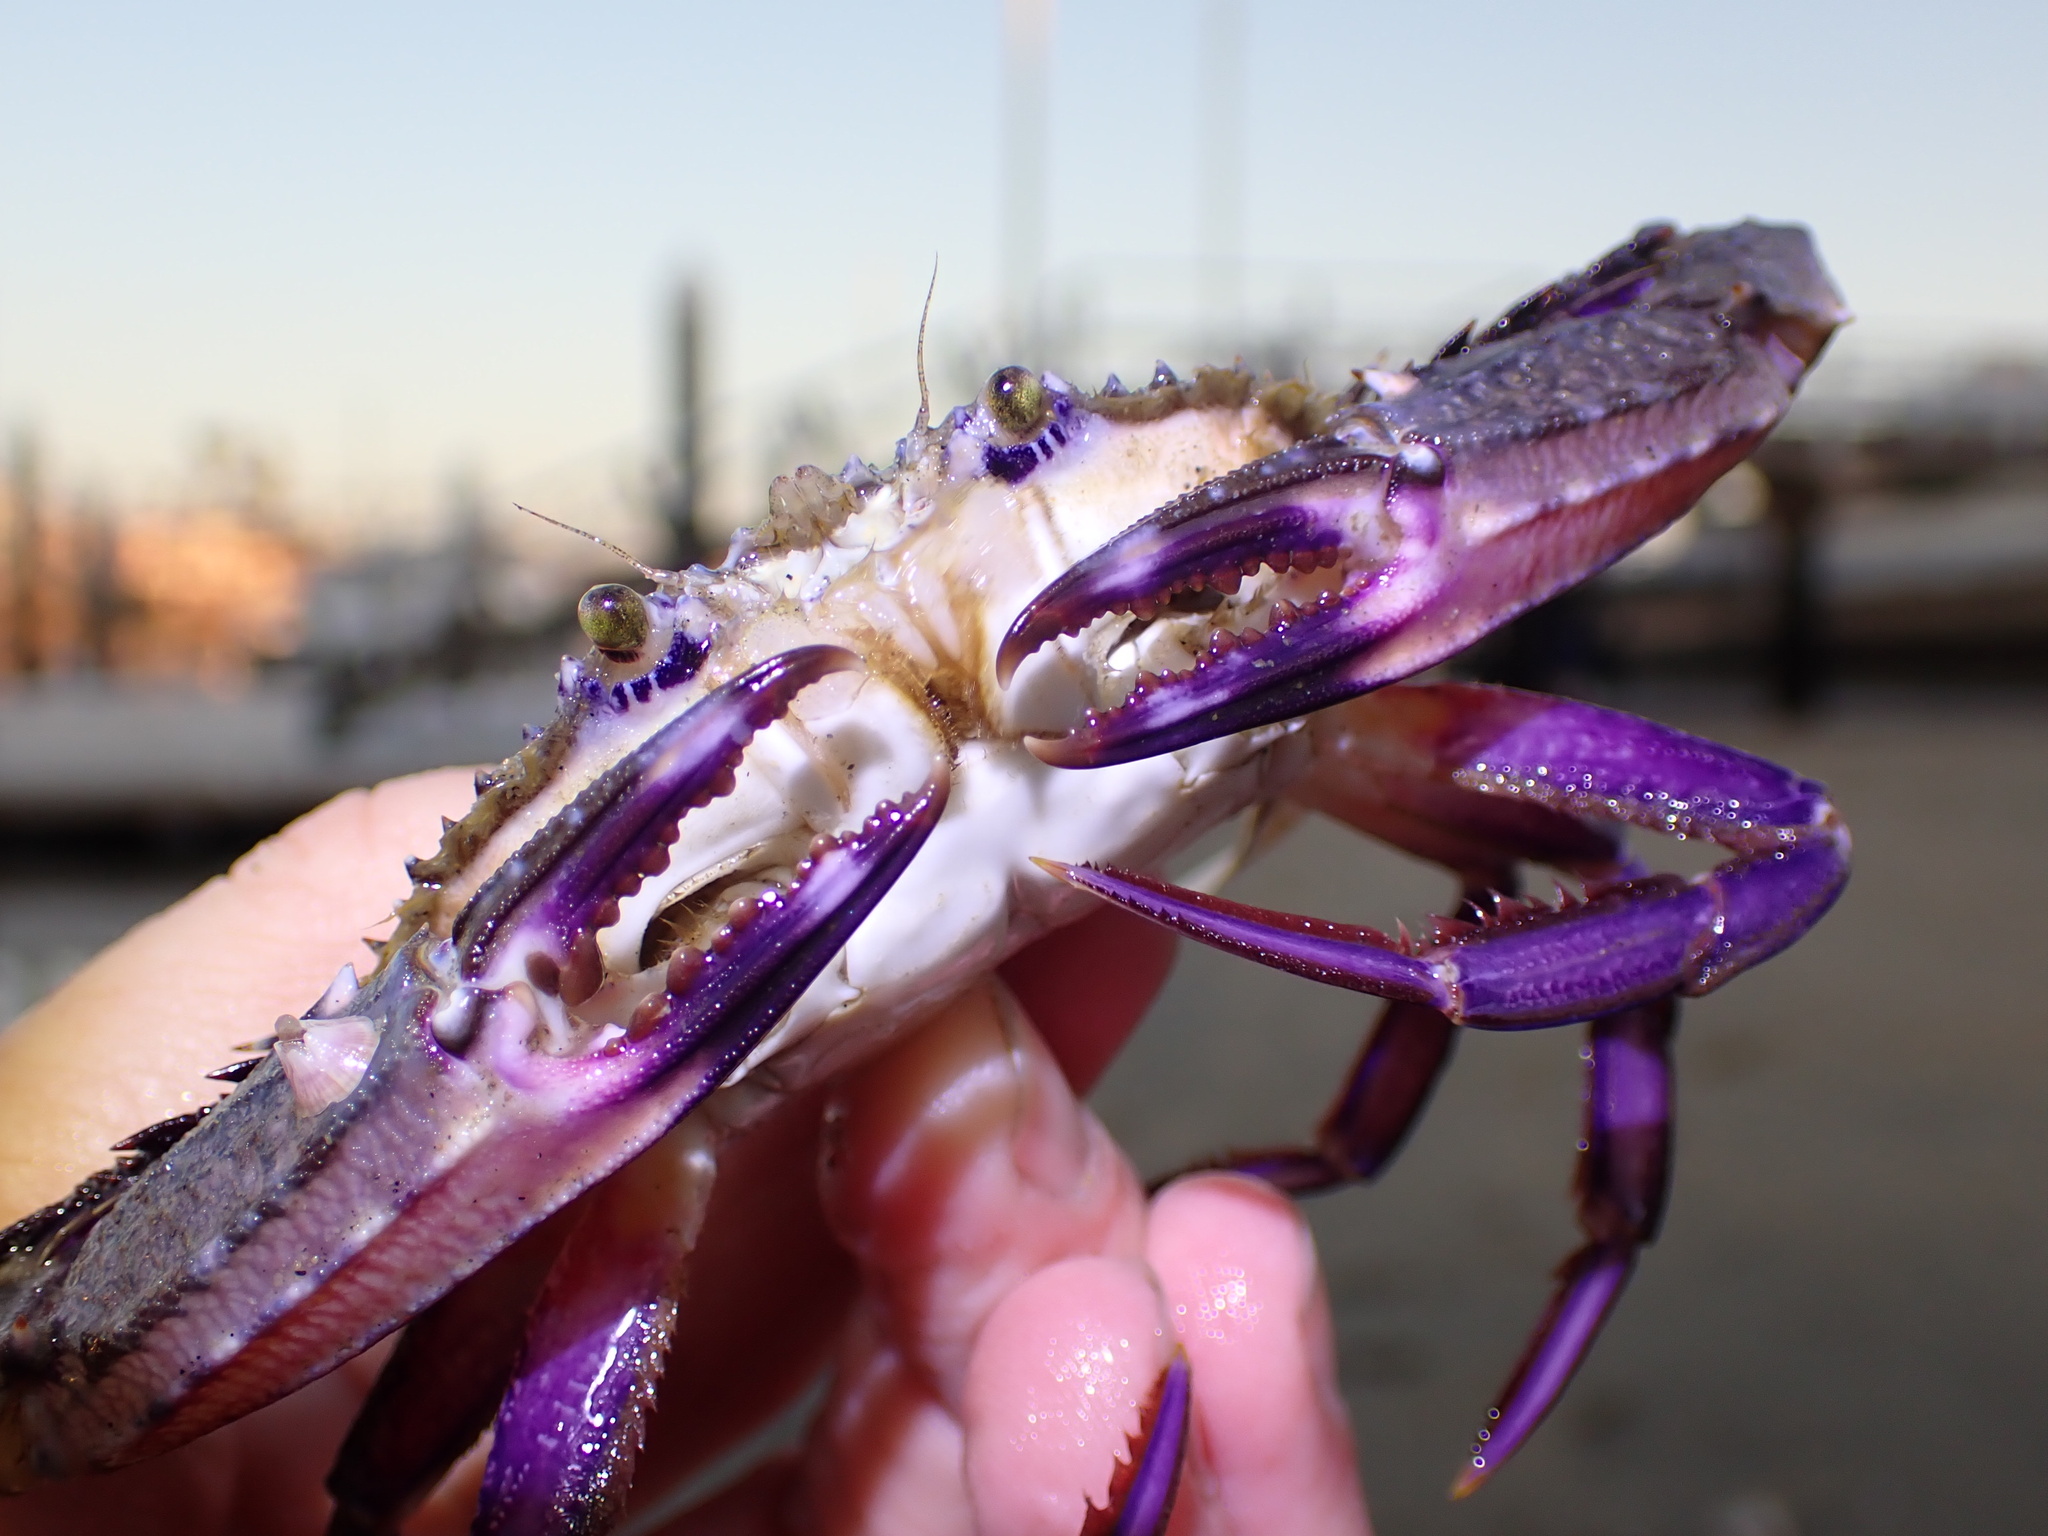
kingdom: Animalia
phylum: Arthropoda
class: Malacostraca
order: Decapoda
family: Portunidae
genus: Achelous
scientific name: Achelous xantusii
